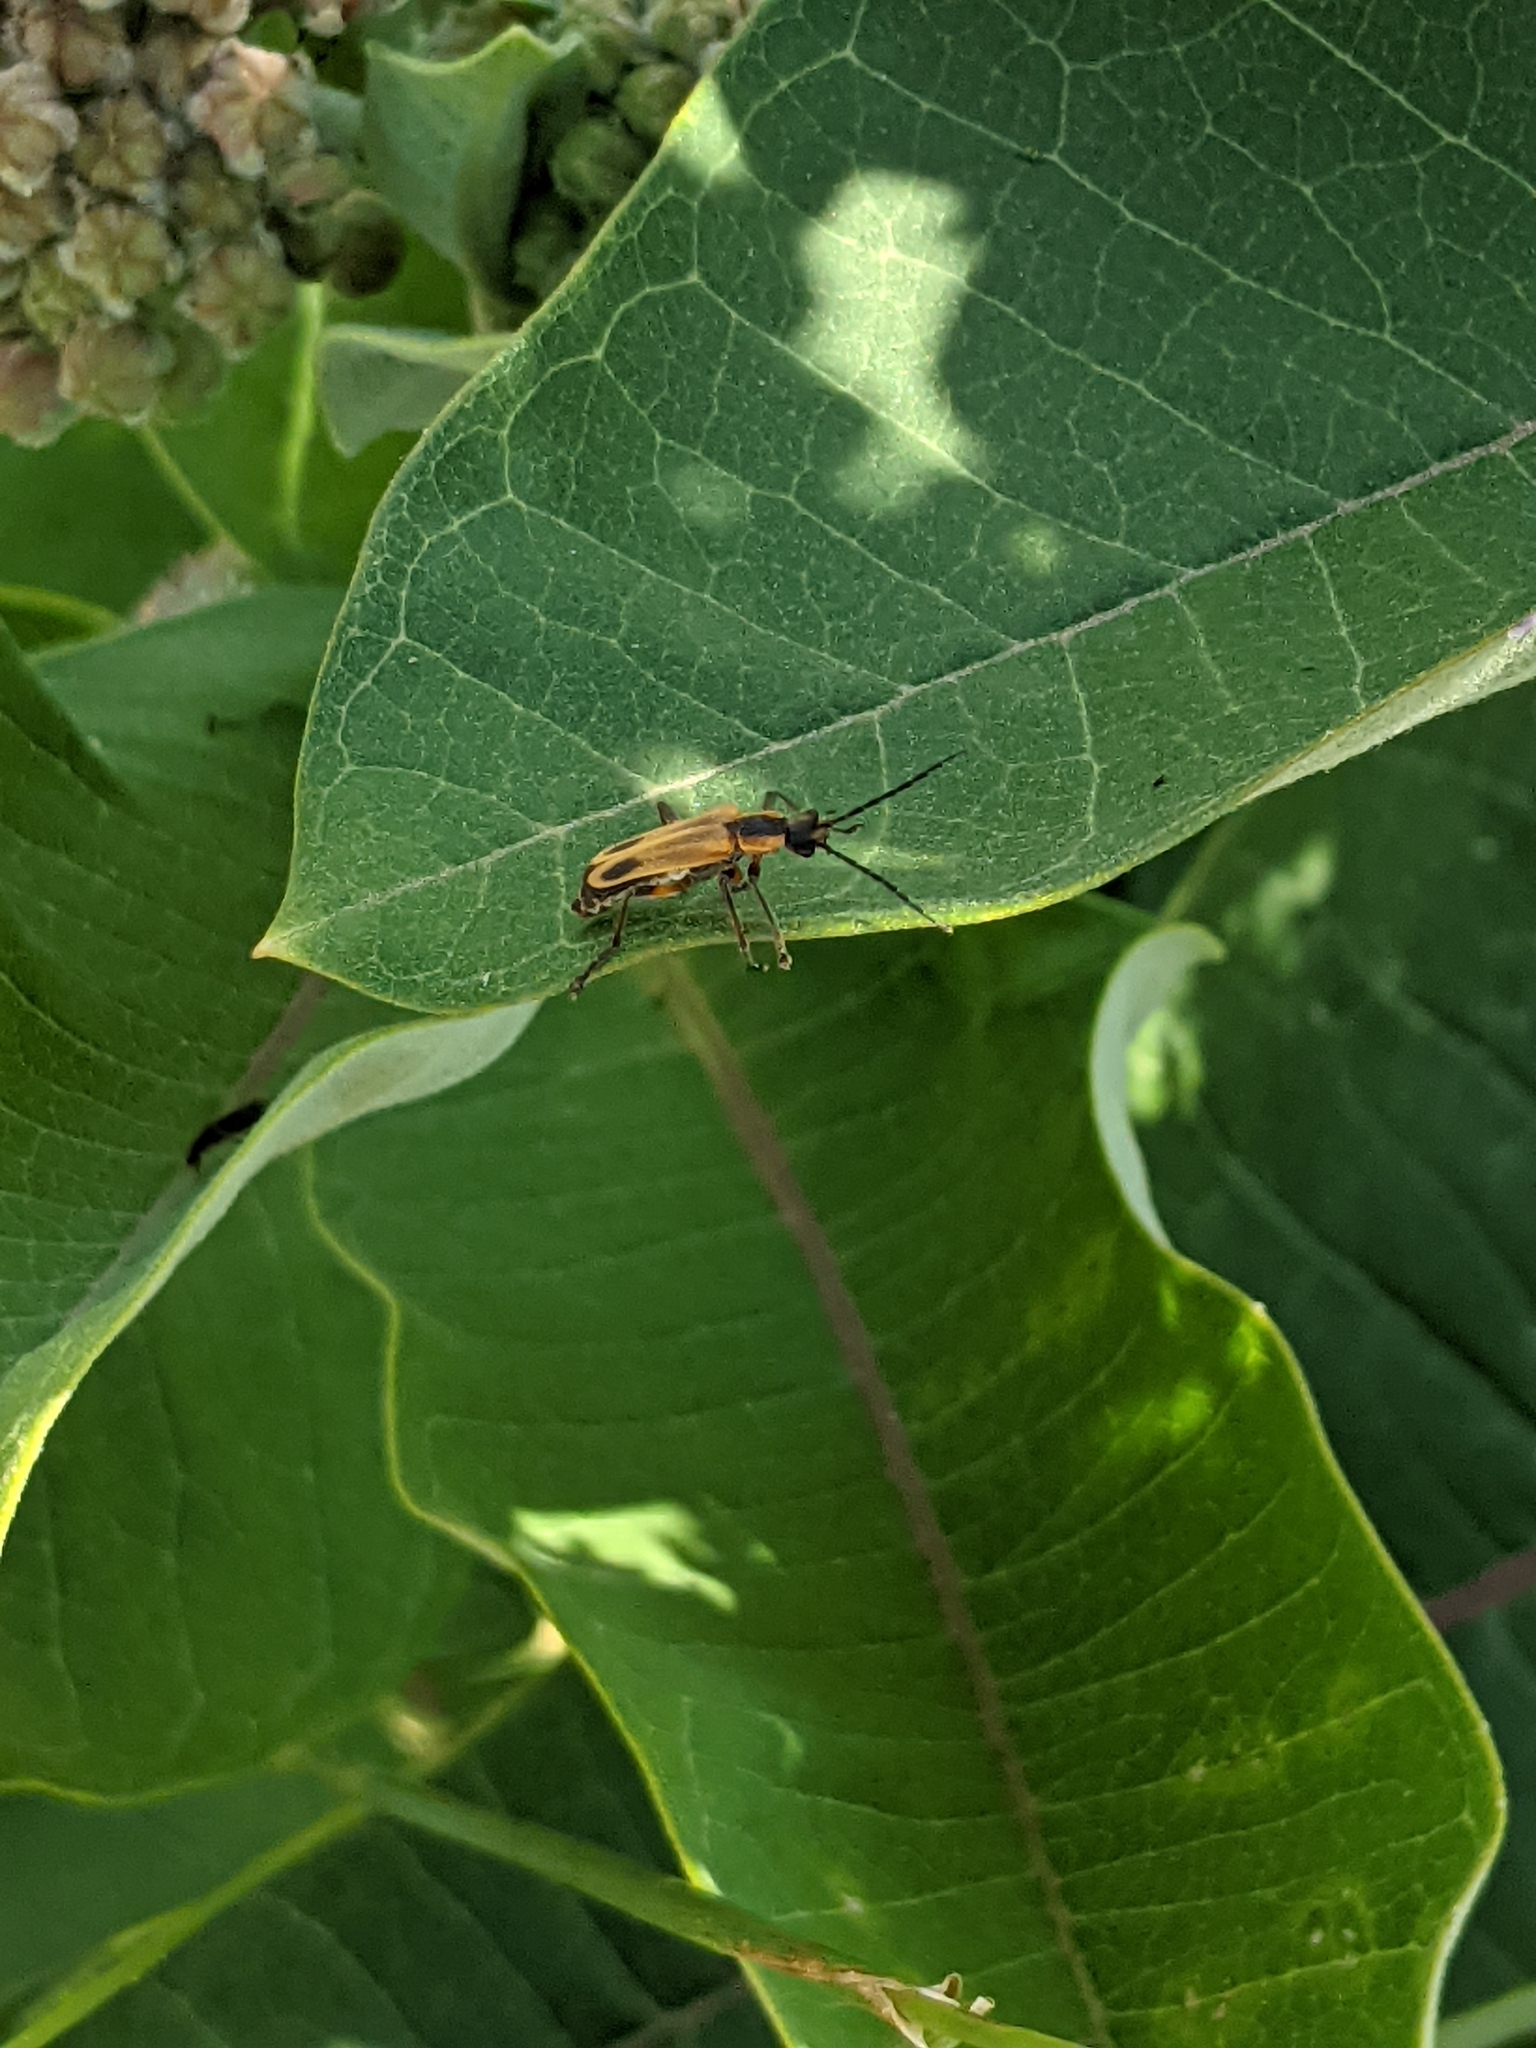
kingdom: Animalia
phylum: Arthropoda
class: Insecta
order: Coleoptera
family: Cantharidae
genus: Chauliognathus
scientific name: Chauliognathus marginatus
